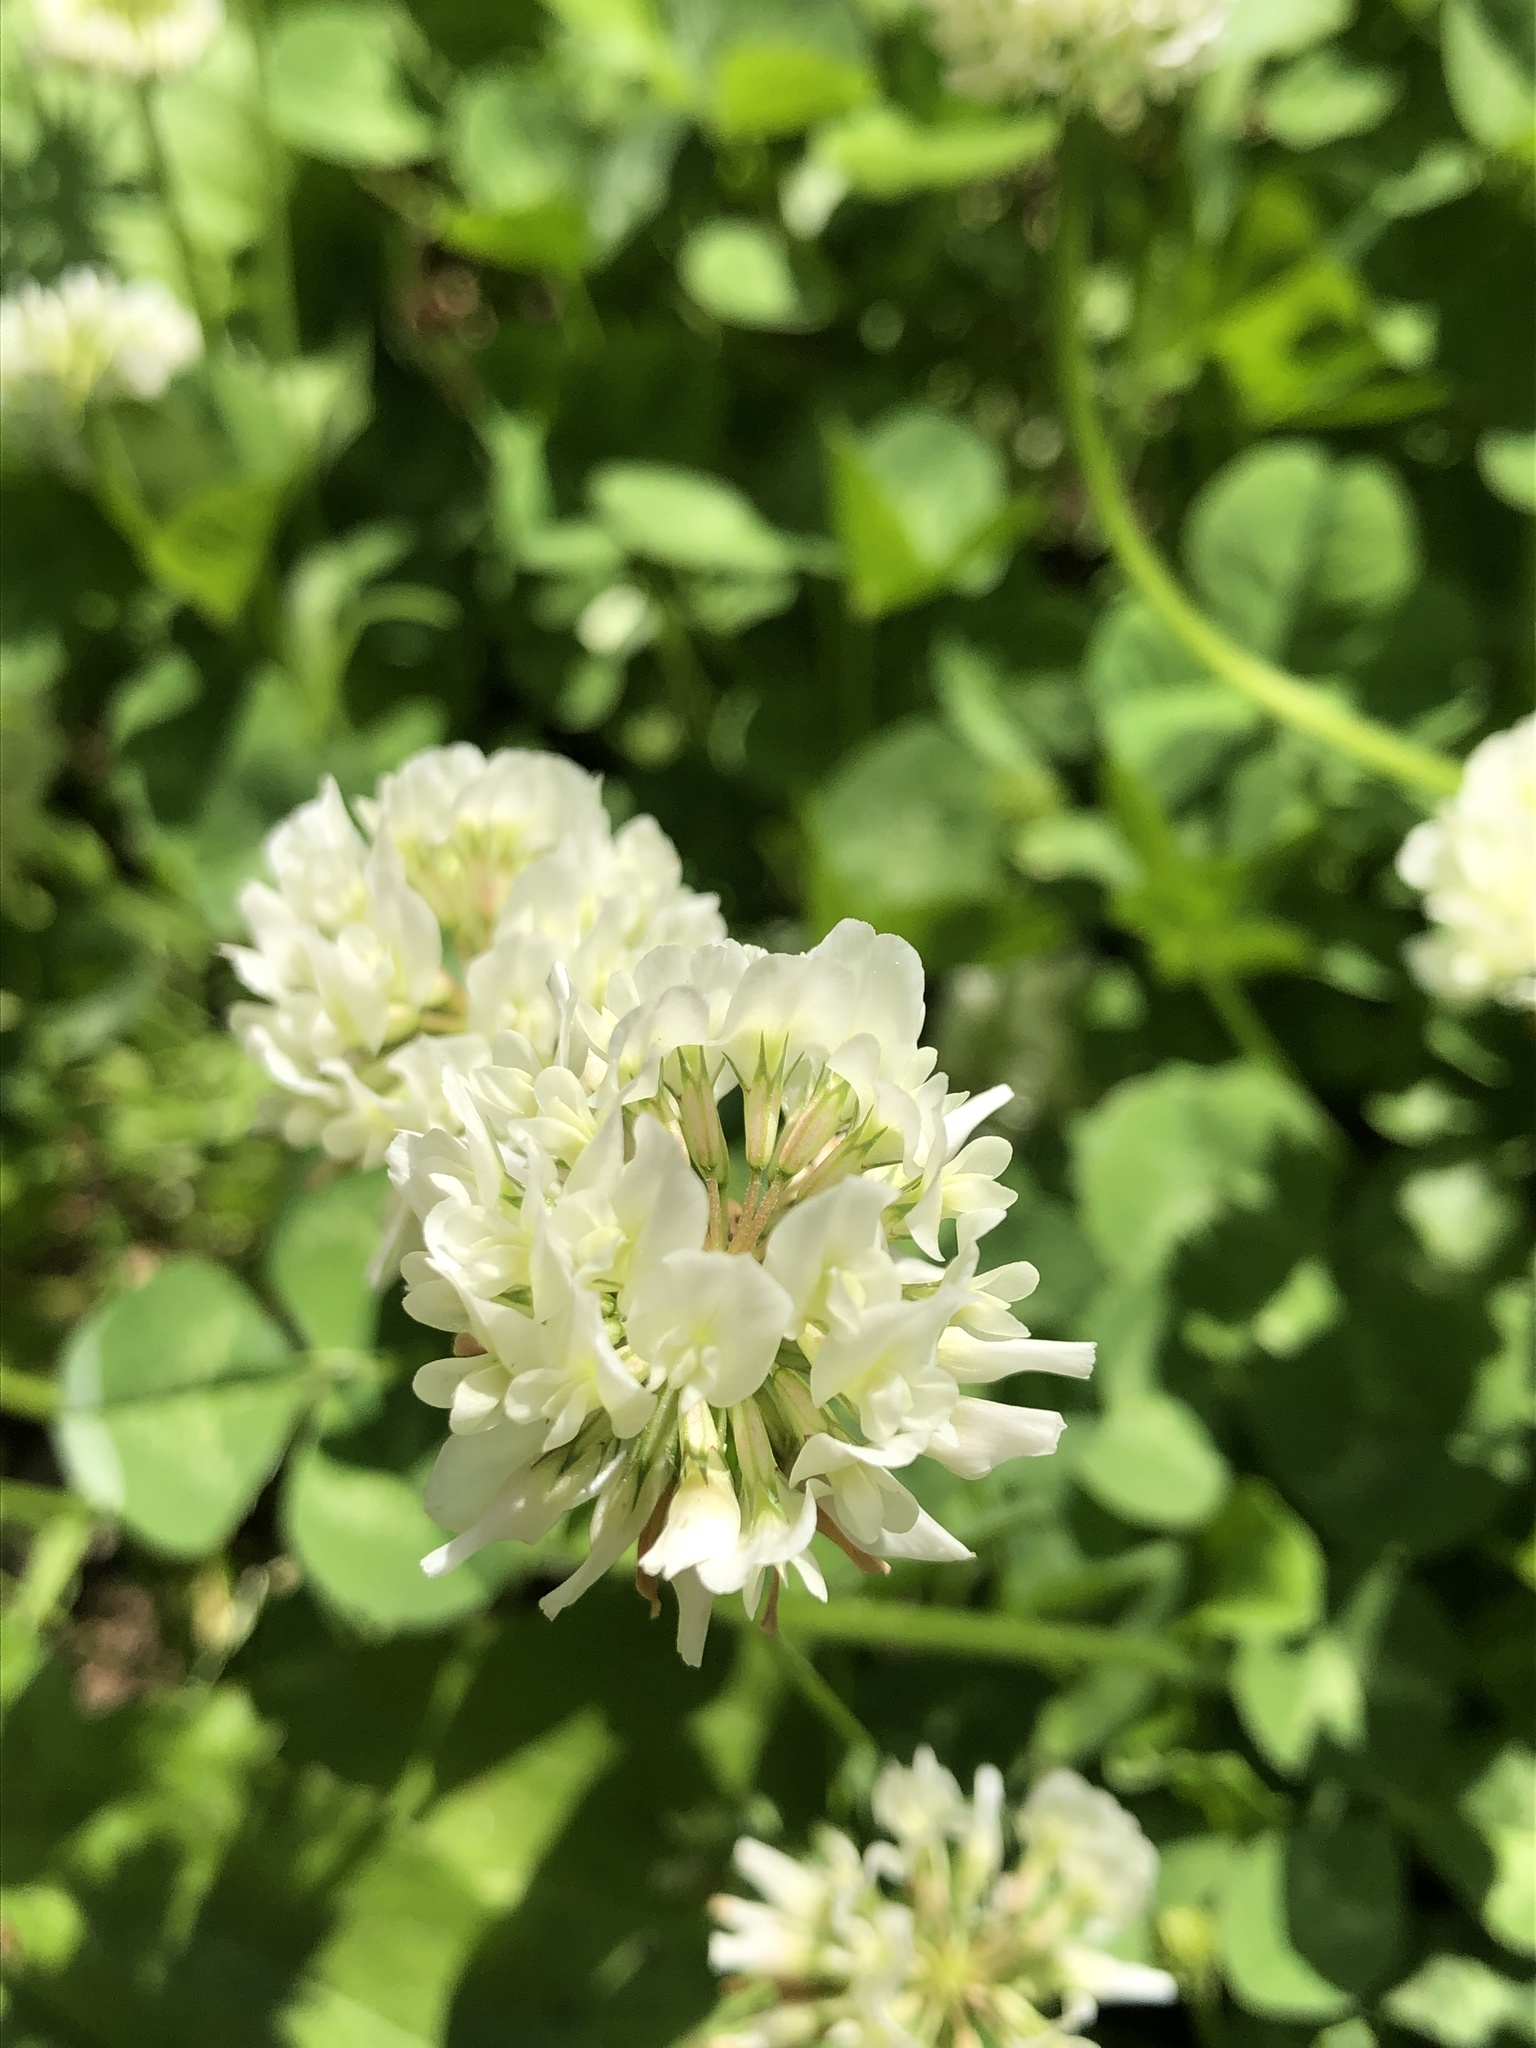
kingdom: Plantae
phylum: Tracheophyta
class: Magnoliopsida
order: Fabales
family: Fabaceae
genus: Trifolium
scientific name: Trifolium repens
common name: White clover
